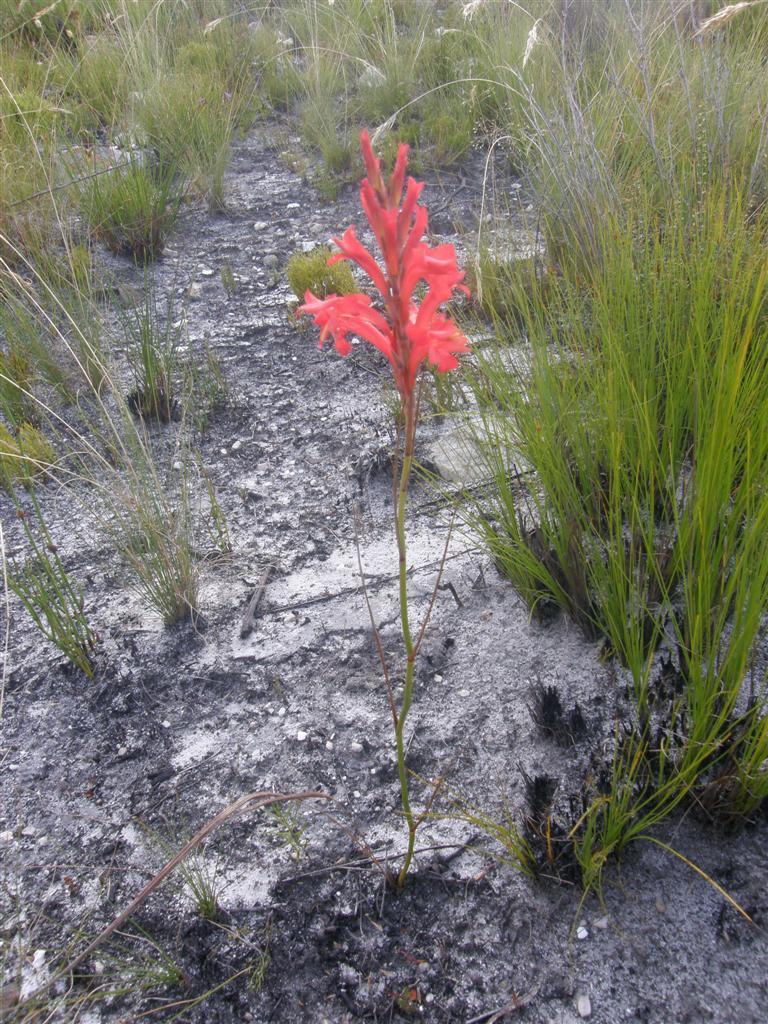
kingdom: Plantae
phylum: Tracheophyta
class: Liliopsida
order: Asparagales
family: Iridaceae
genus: Tritoniopsis
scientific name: Tritoniopsis triticea
